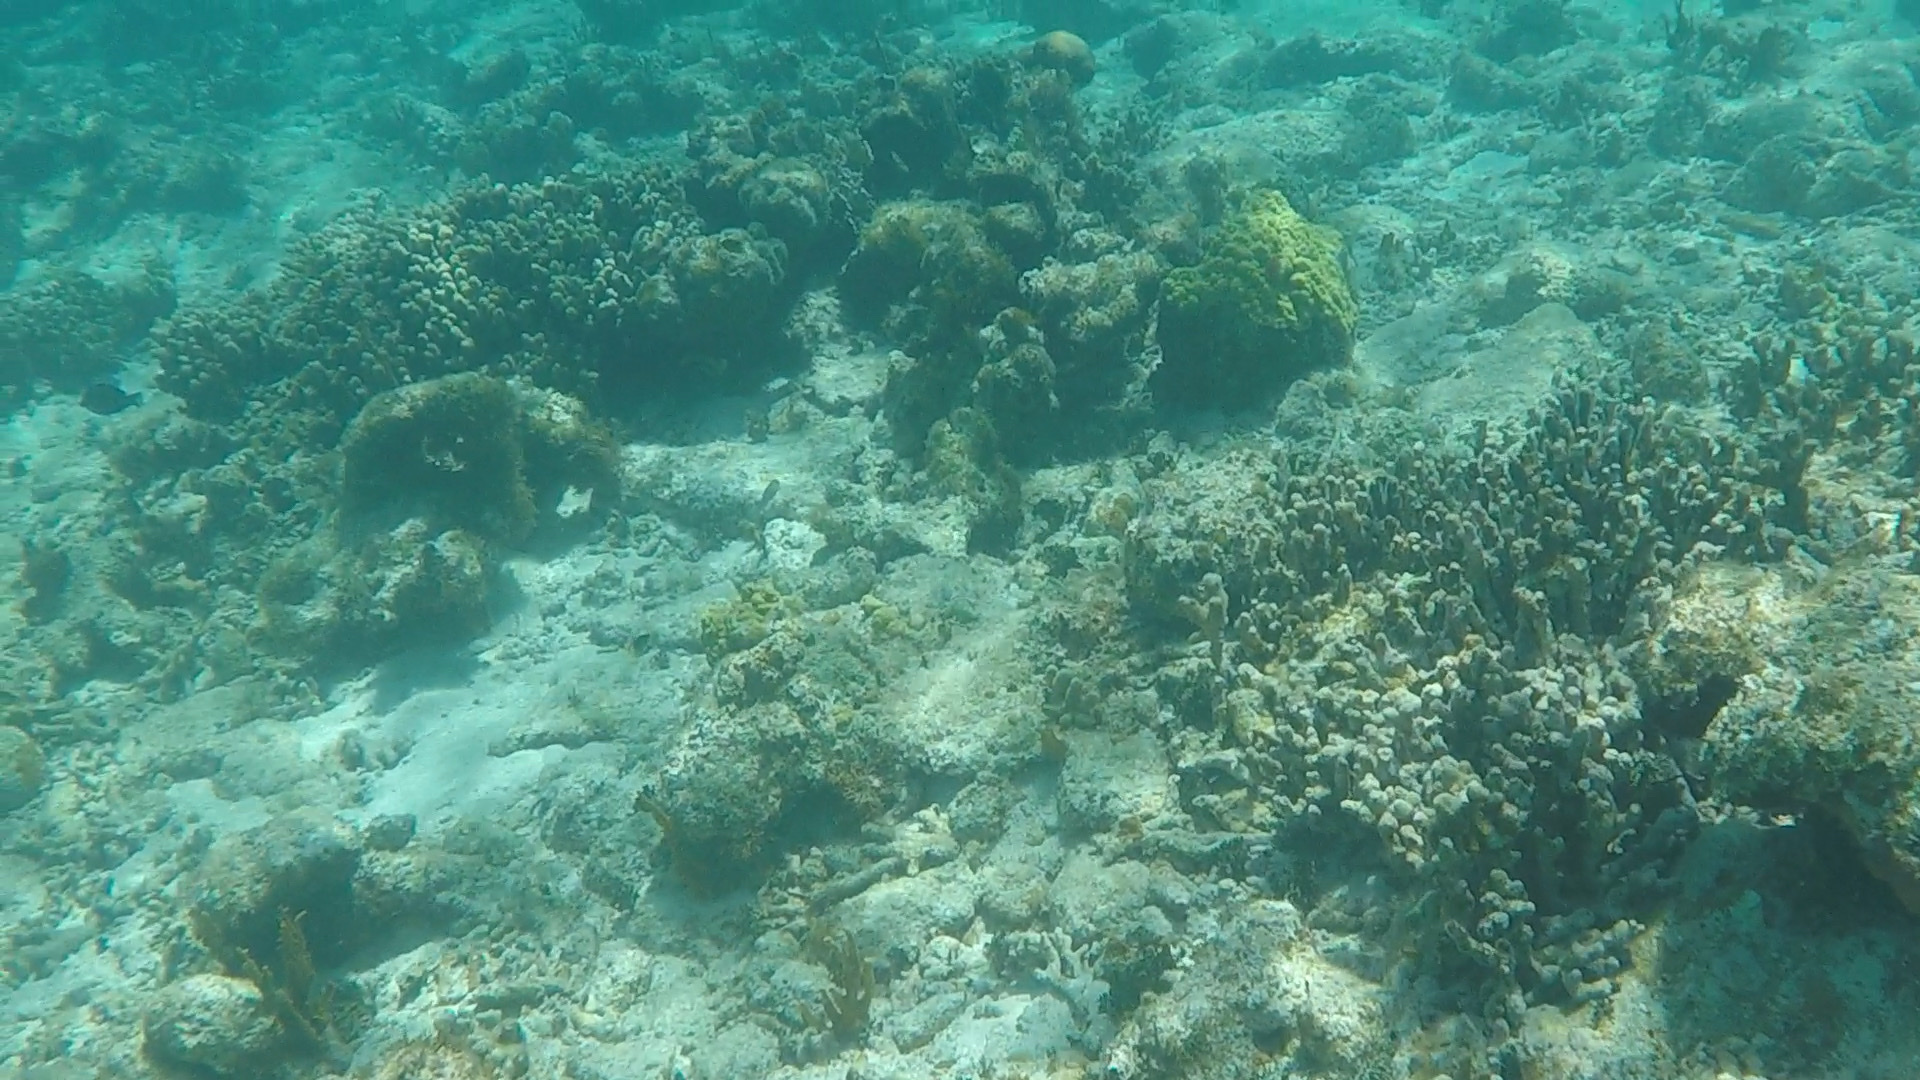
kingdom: Animalia
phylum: Cnidaria
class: Anthozoa
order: Scleractinia
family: Poritidae
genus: Porites
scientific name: Porites porites
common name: Finger coral
